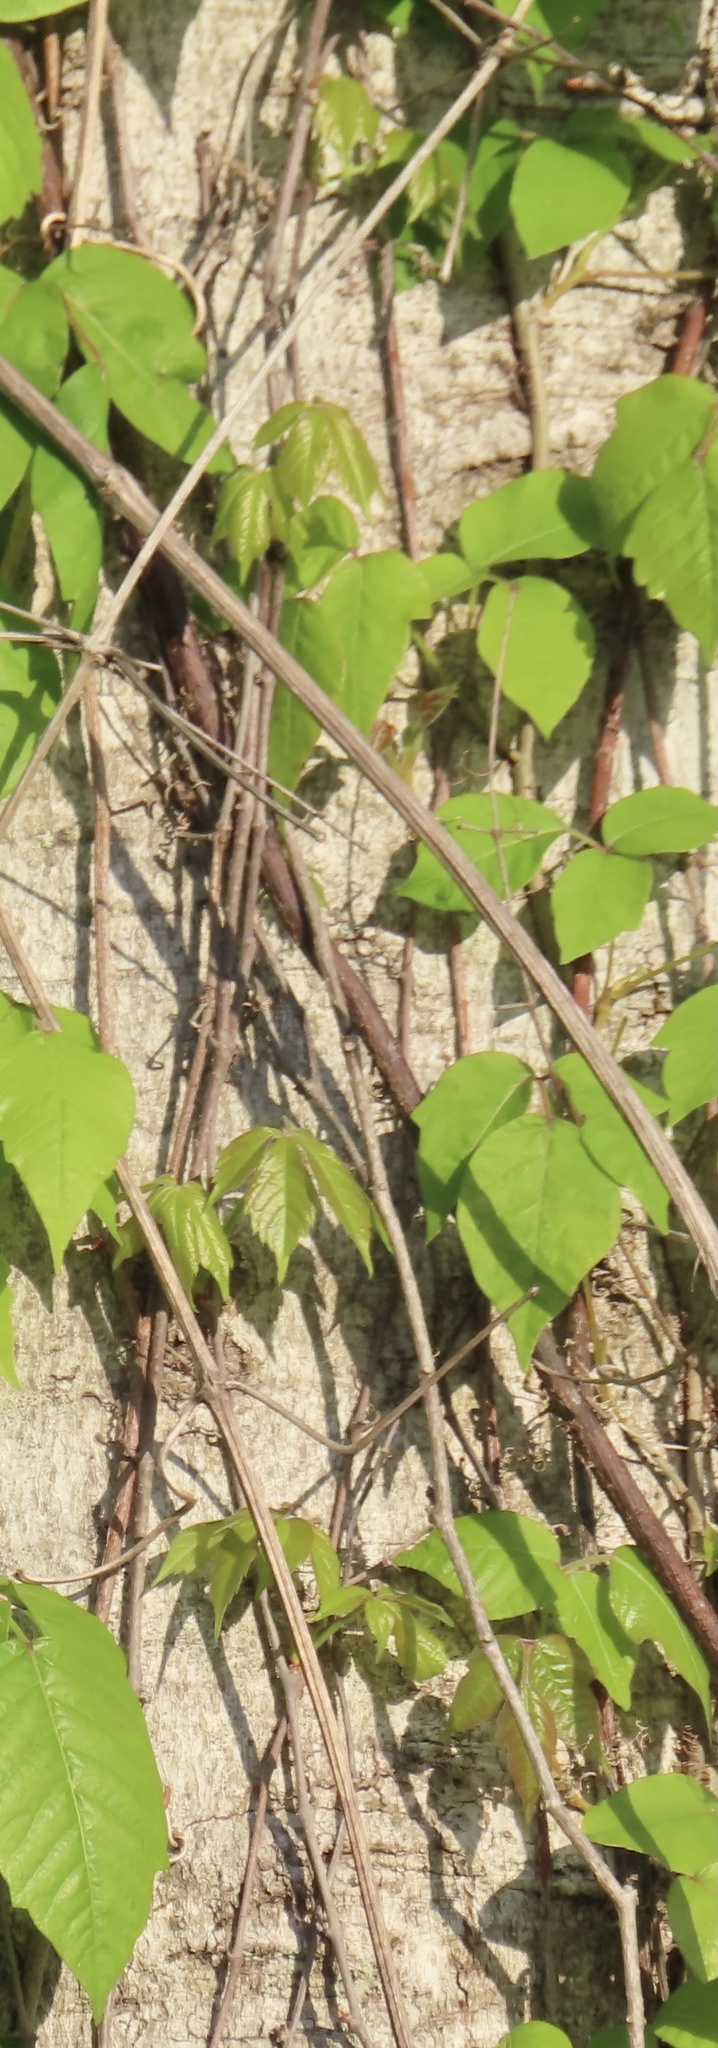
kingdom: Plantae
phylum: Tracheophyta
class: Magnoliopsida
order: Sapindales
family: Anacardiaceae
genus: Toxicodendron
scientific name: Toxicodendron radicans
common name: Poison ivy
